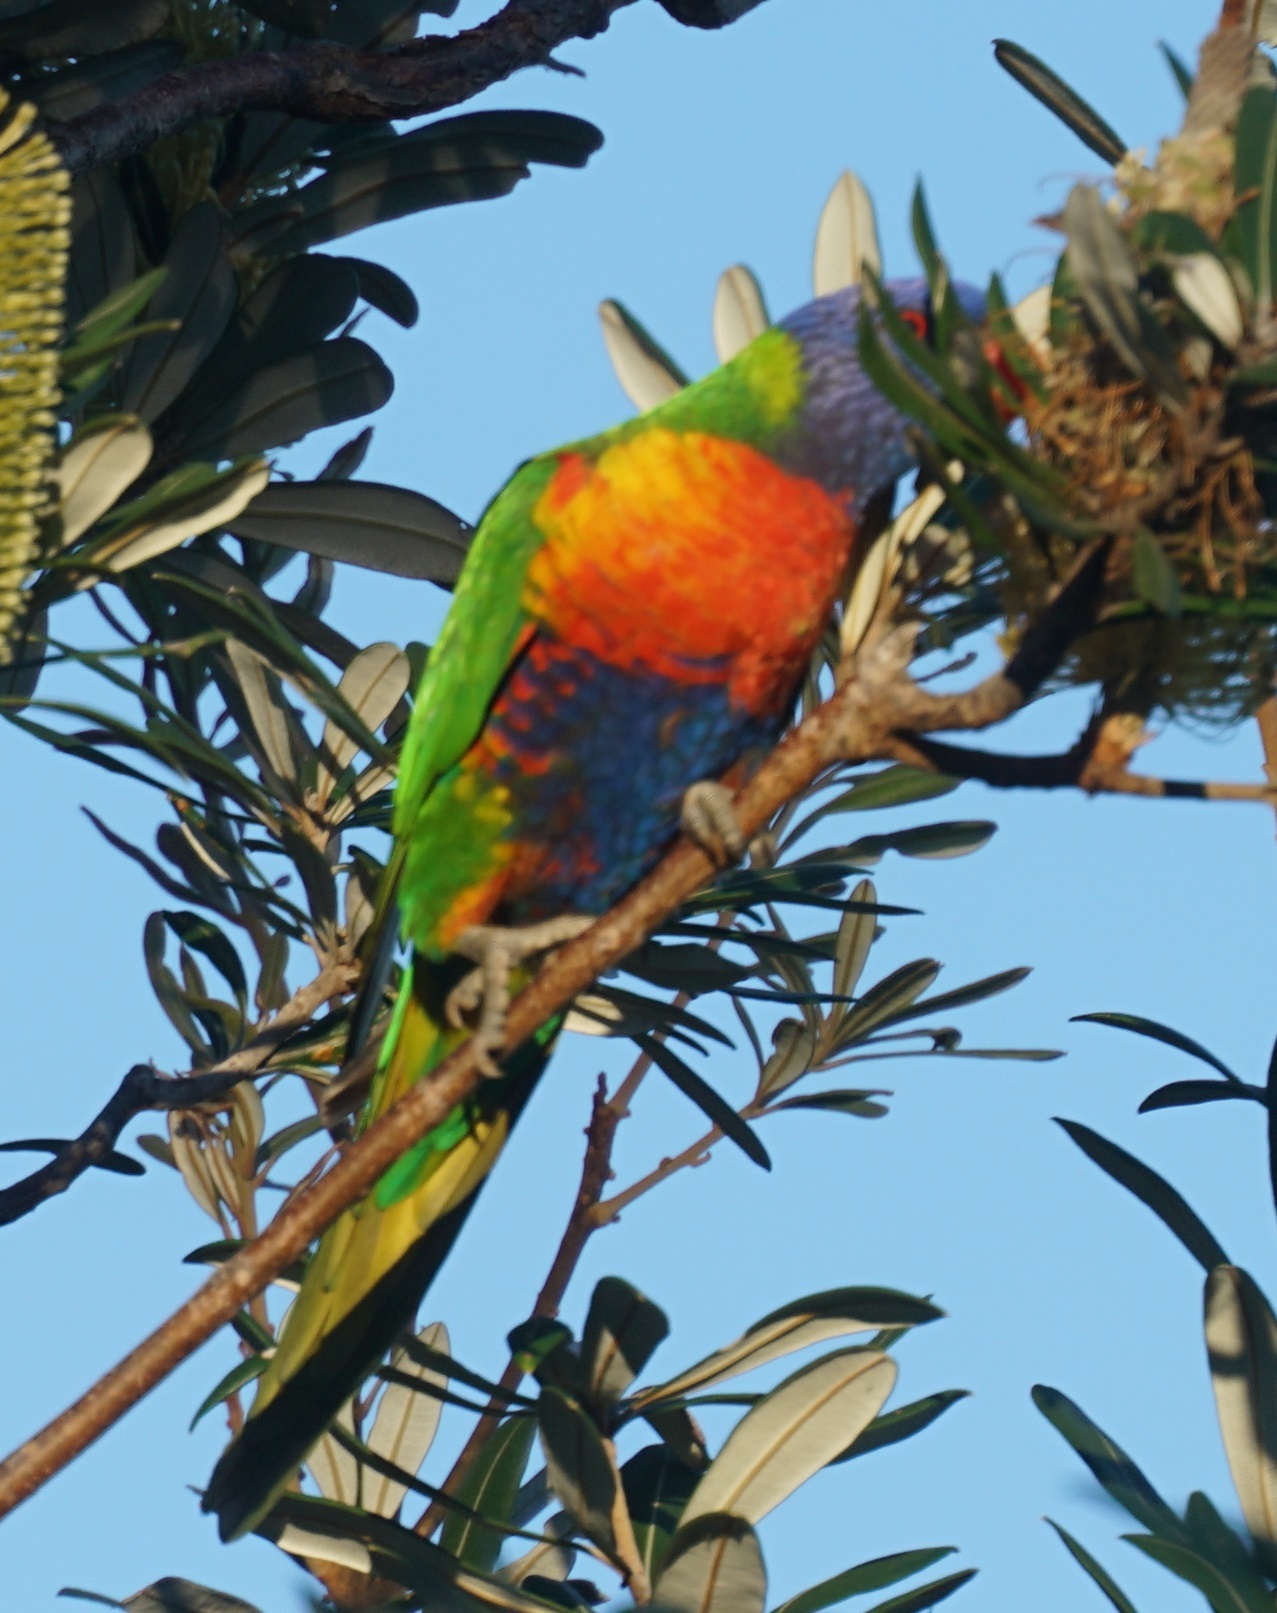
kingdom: Animalia
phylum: Chordata
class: Aves
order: Psittaciformes
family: Psittacidae
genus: Trichoglossus
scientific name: Trichoglossus haematodus
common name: Coconut lorikeet
